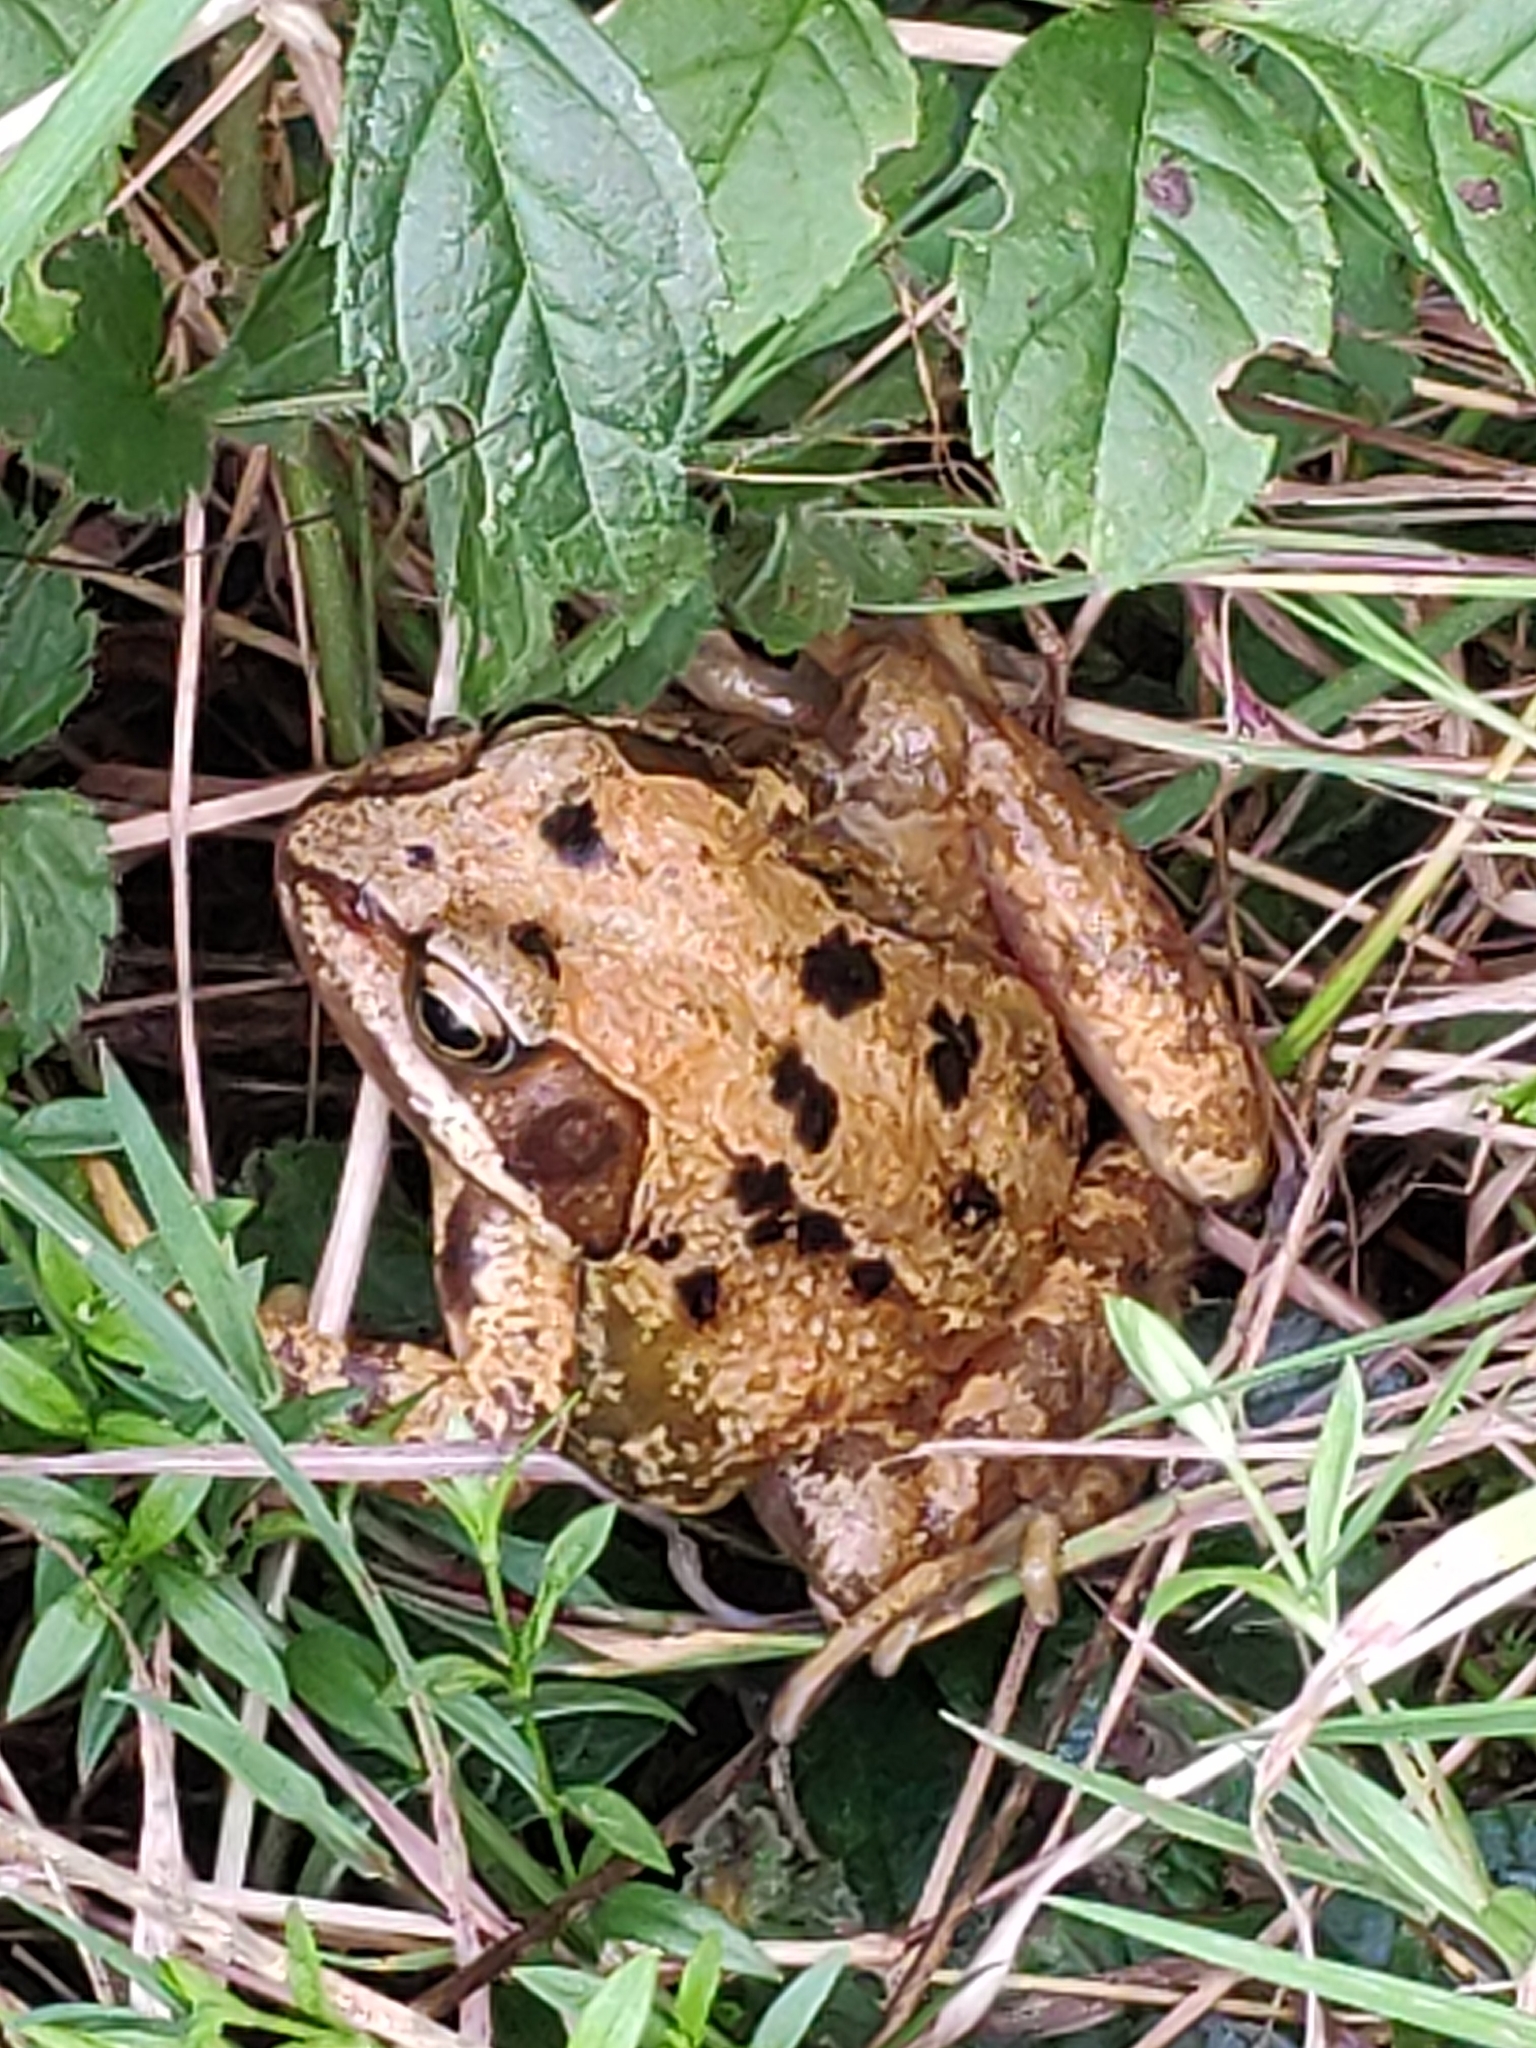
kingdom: Animalia
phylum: Chordata
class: Amphibia
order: Anura
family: Ranidae
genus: Rana
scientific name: Rana temporaria
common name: Common frog
